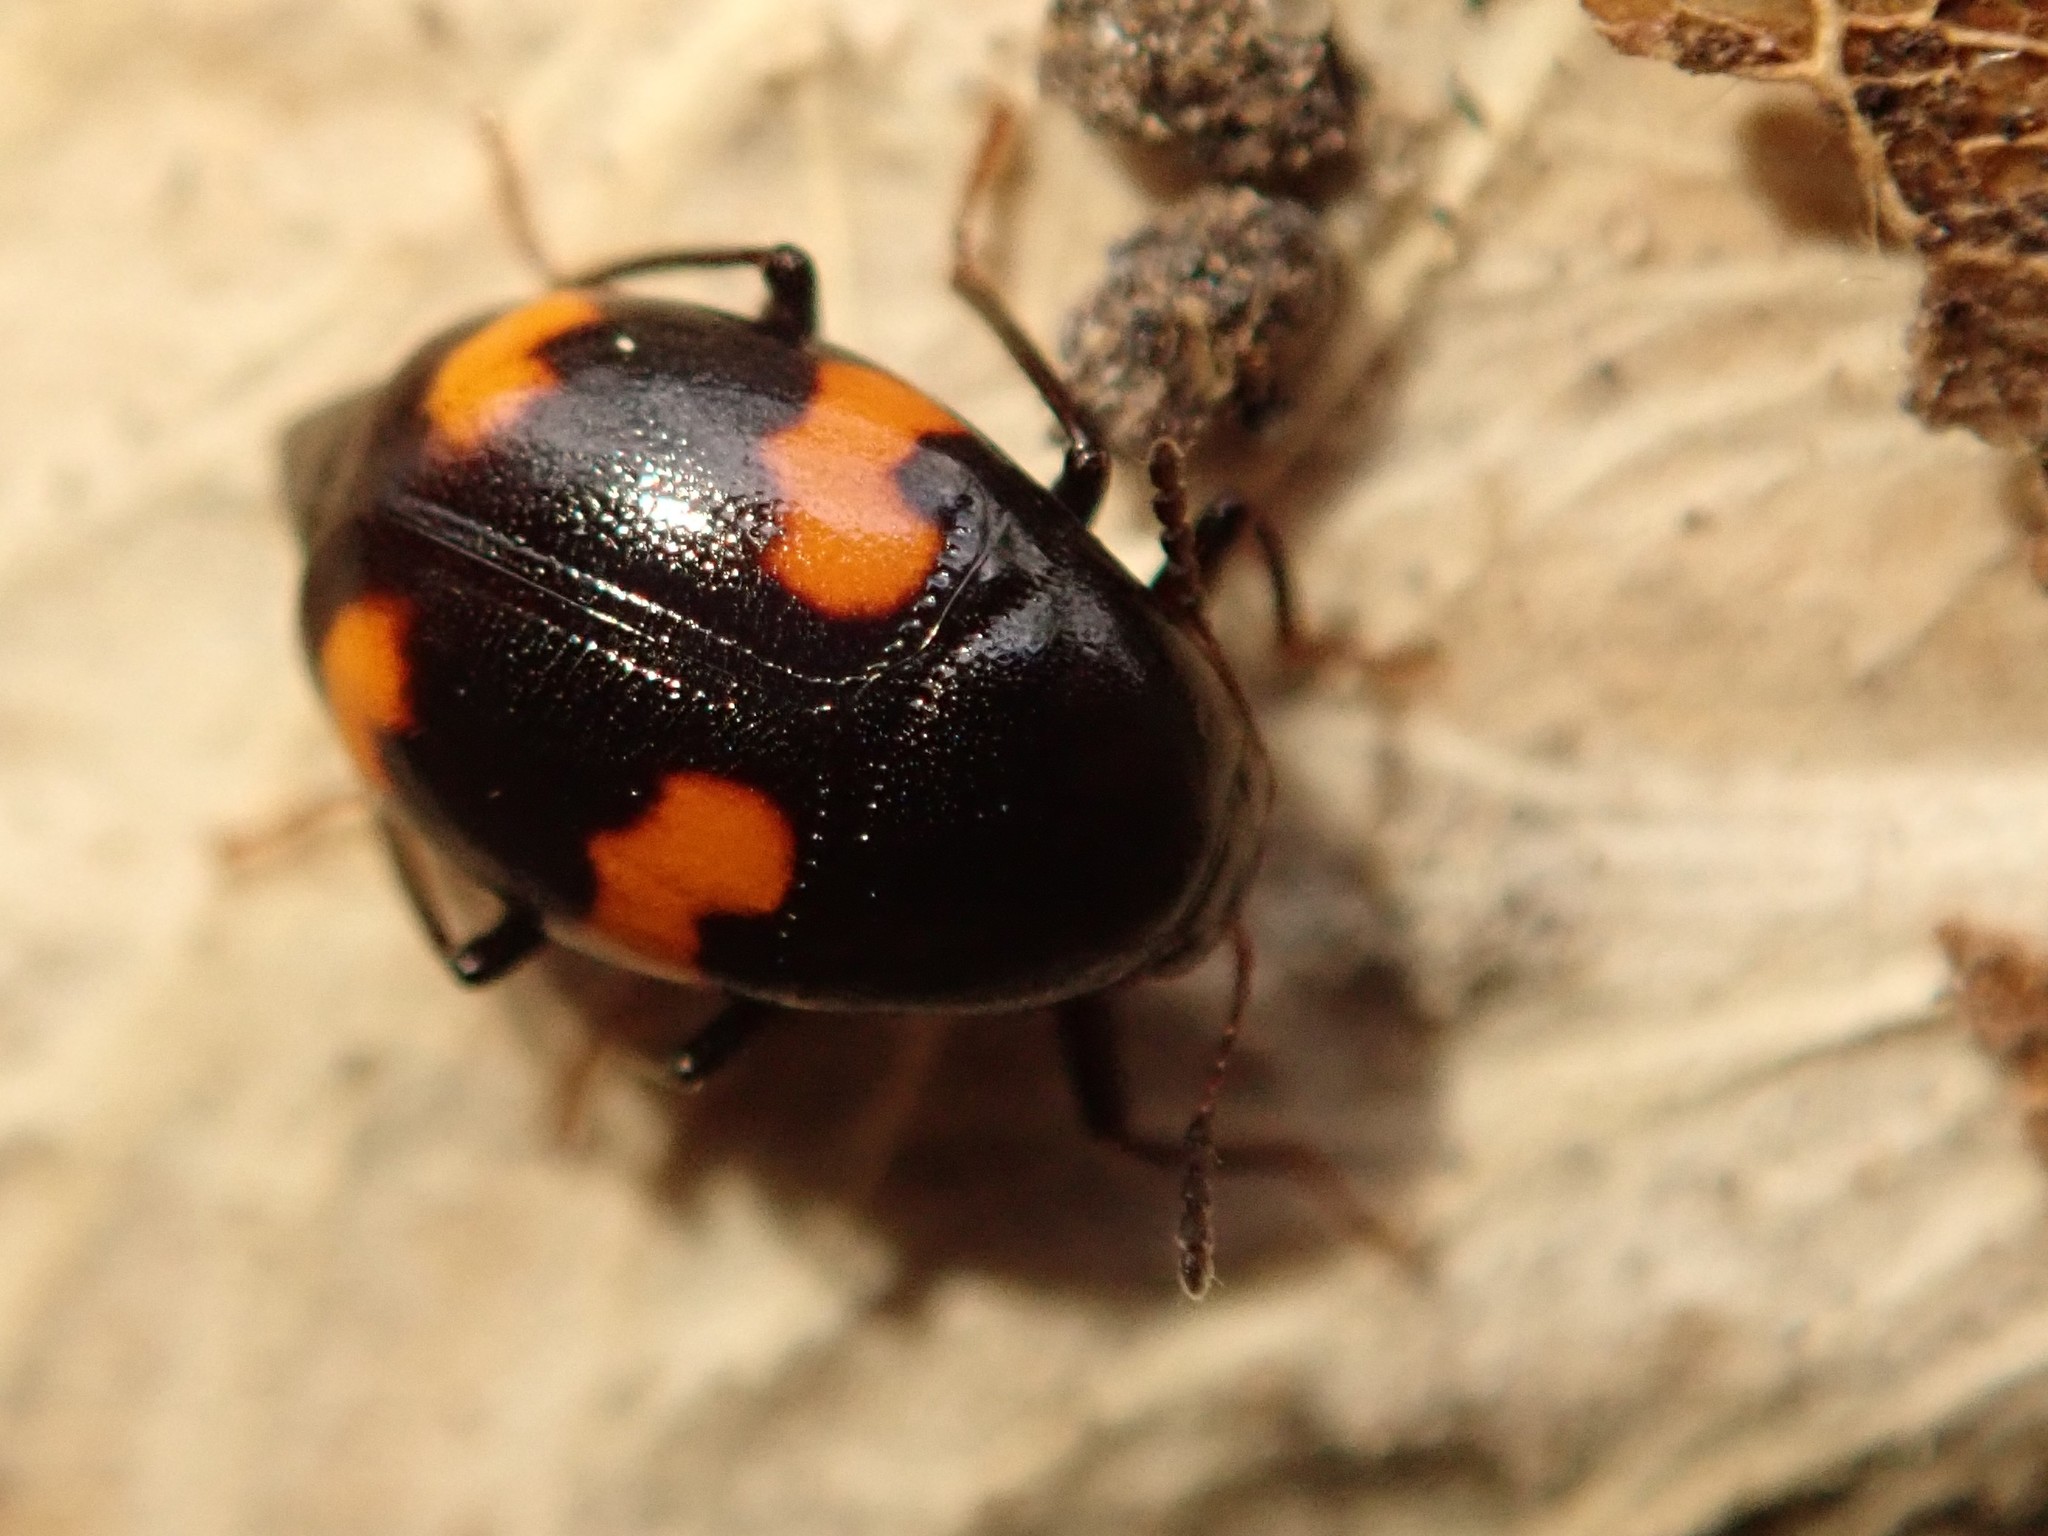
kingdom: Animalia
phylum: Arthropoda
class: Insecta
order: Coleoptera
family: Staphylinidae
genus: Scaphidium
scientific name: Scaphidium quadrimaculatum
